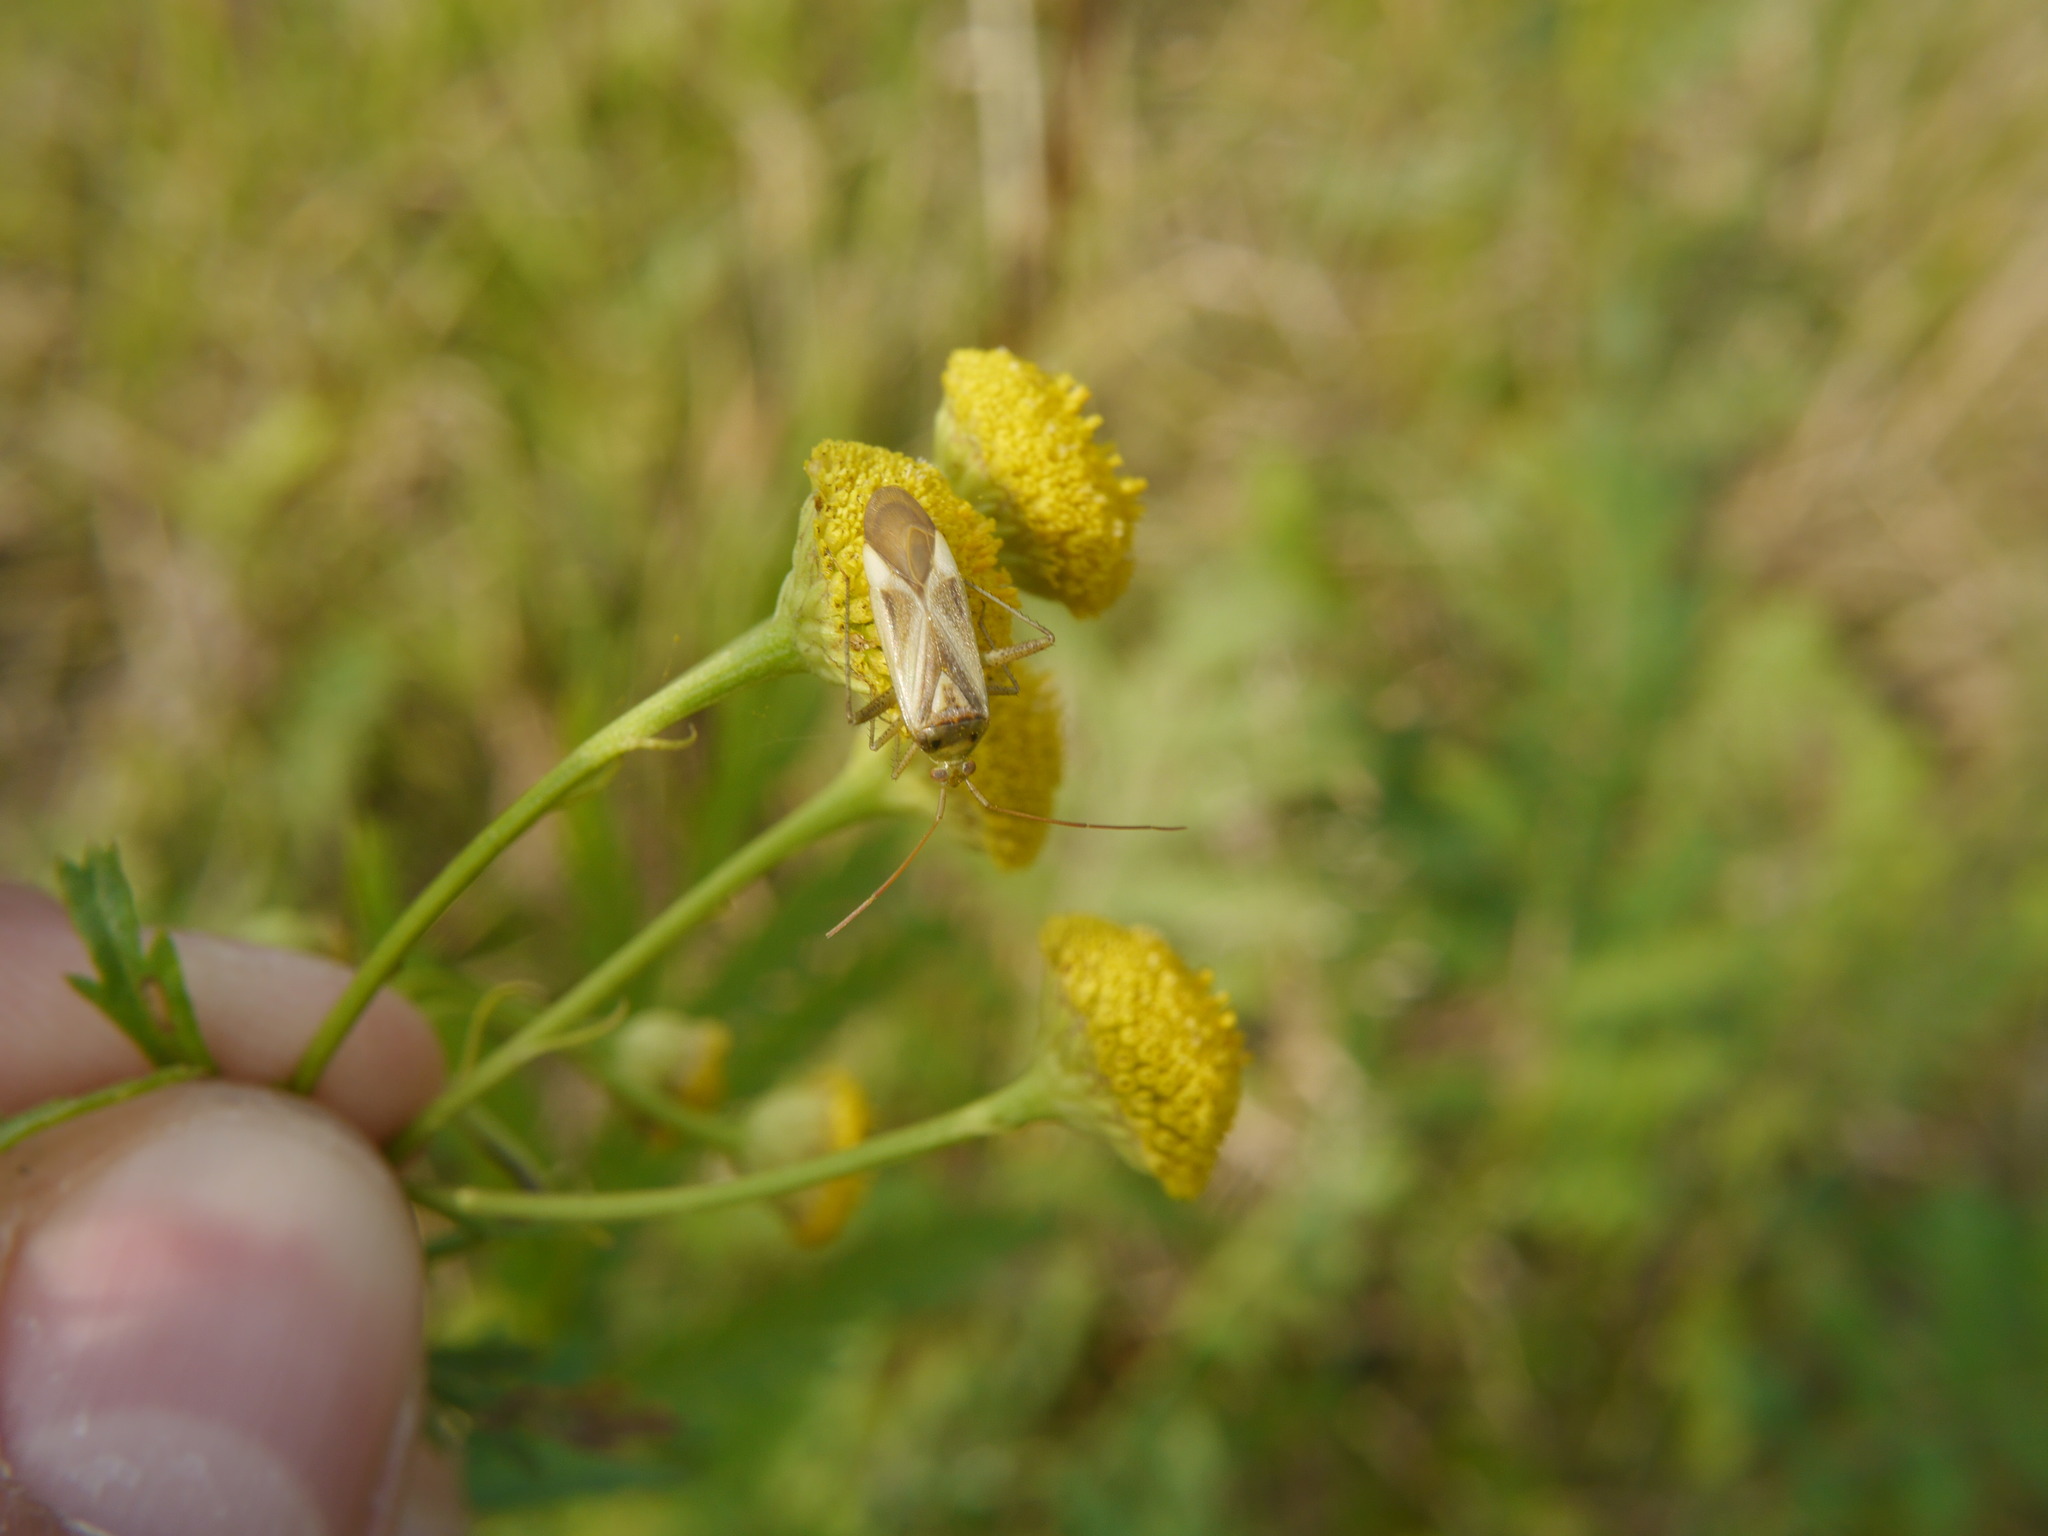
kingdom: Animalia
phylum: Arthropoda
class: Insecta
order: Hemiptera
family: Miridae
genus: Adelphocoris
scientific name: Adelphocoris lineolatus
